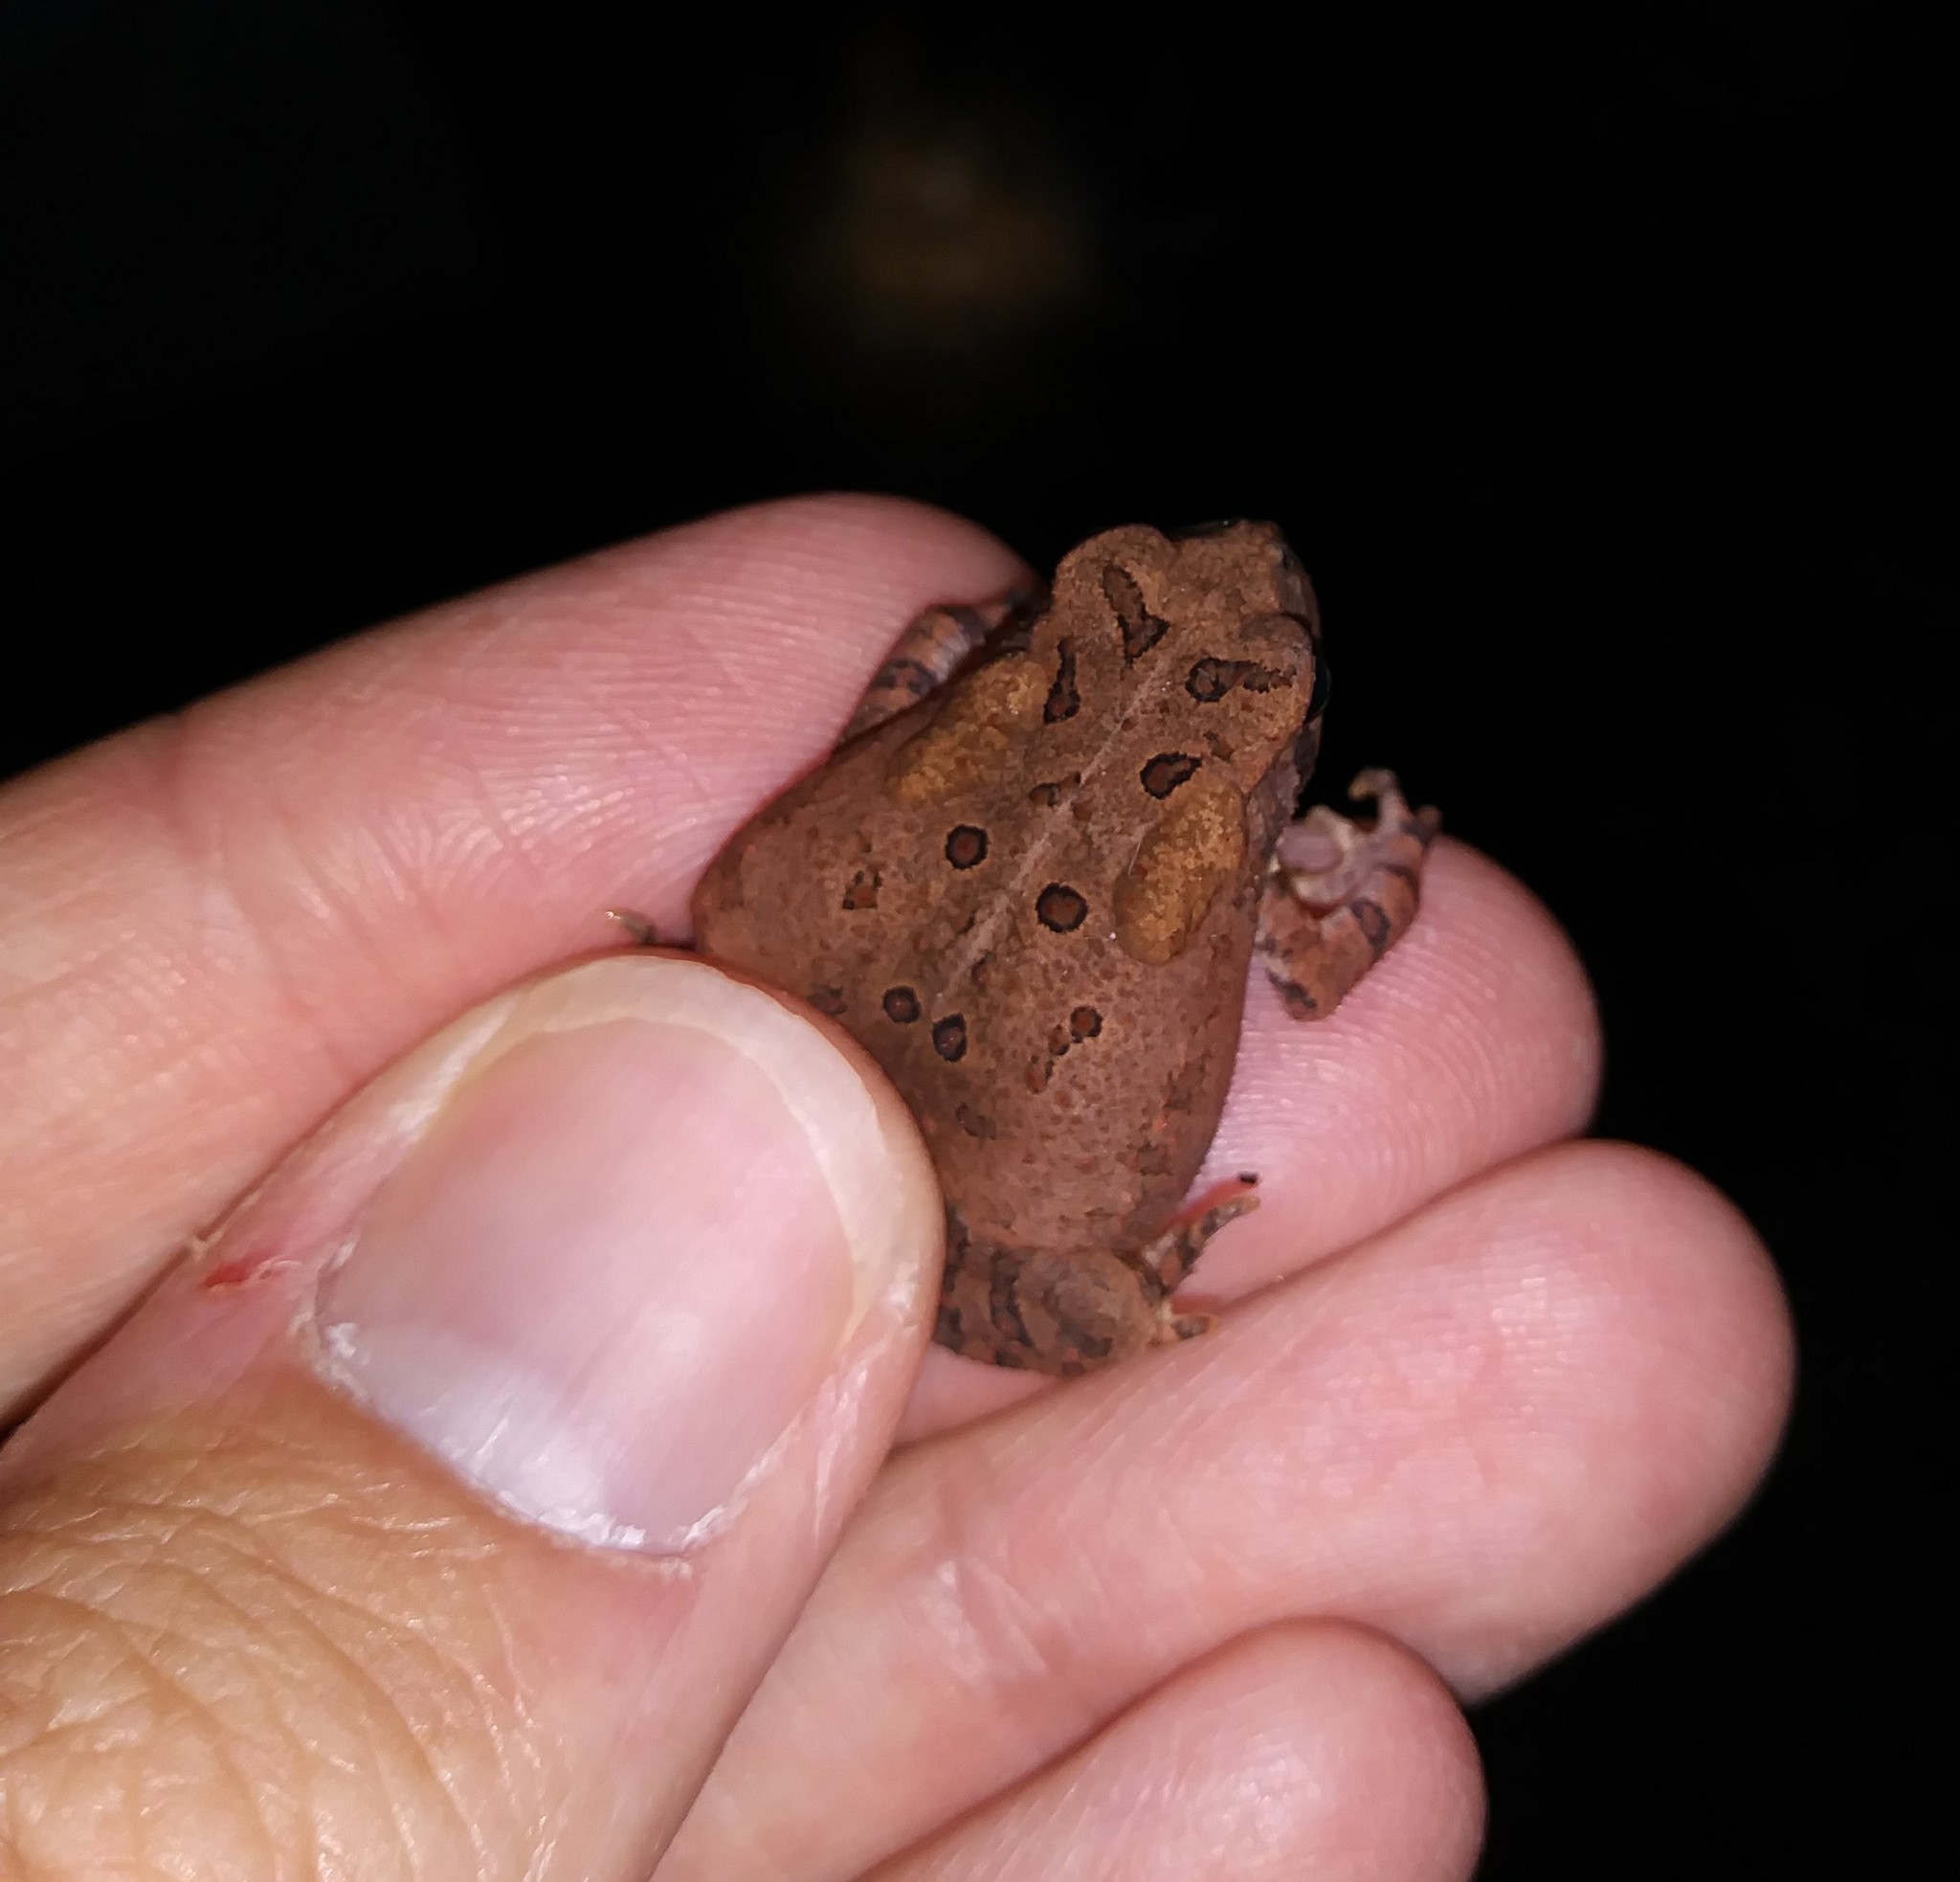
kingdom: Animalia
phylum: Chordata
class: Amphibia
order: Anura
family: Bufonidae
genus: Anaxyrus
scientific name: Anaxyrus americanus
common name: American toad
